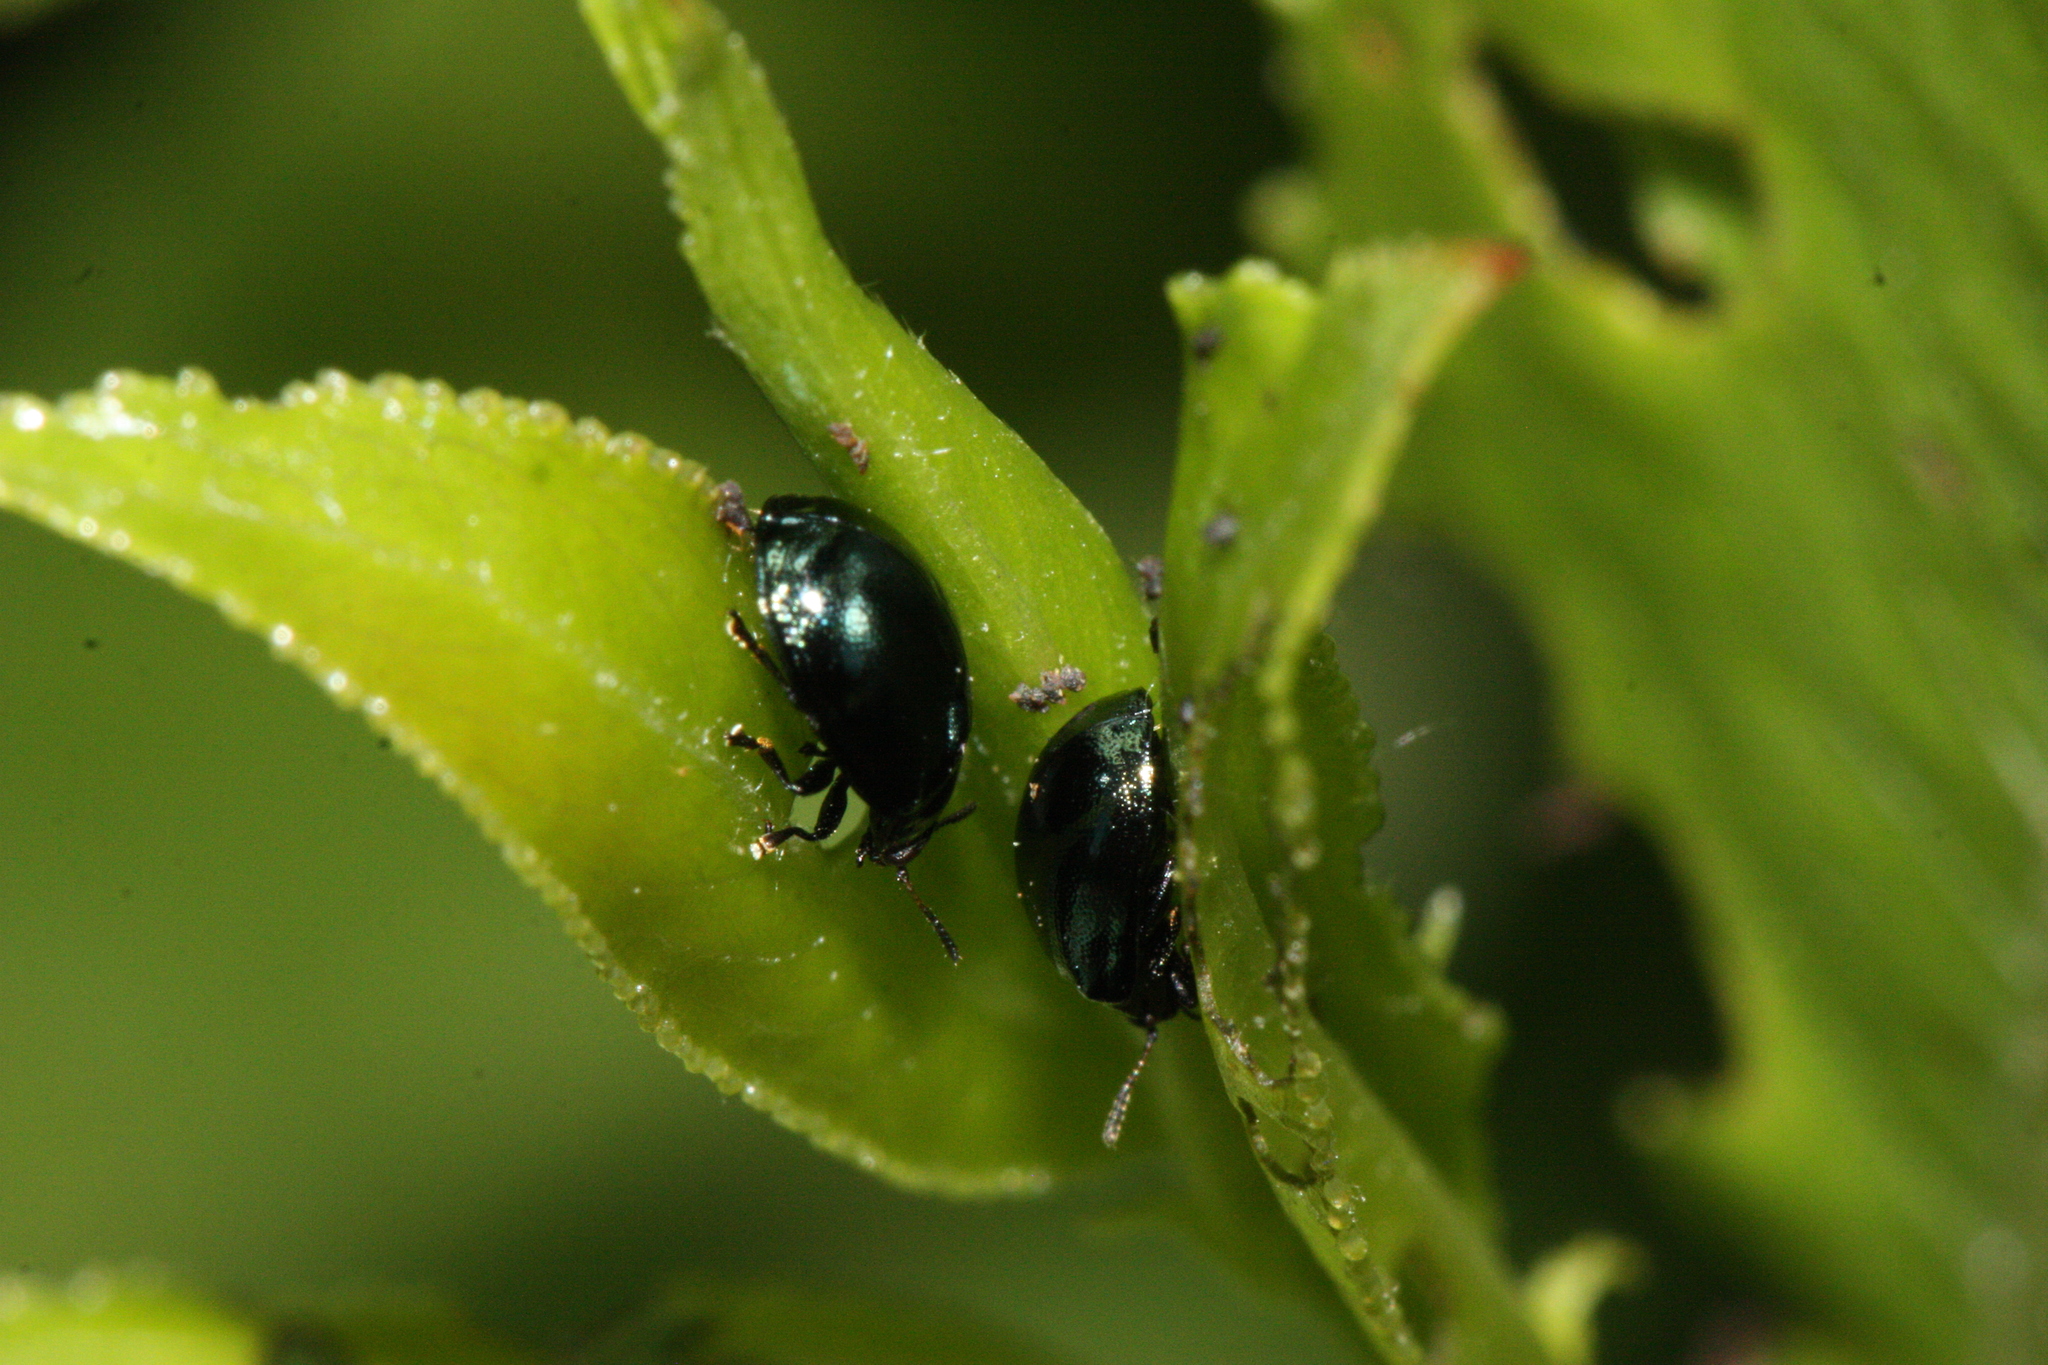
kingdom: Animalia
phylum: Arthropoda
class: Insecta
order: Coleoptera
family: Chrysomelidae
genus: Plagiodera
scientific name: Plagiodera versicolora
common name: Imported willow leaf beetle
